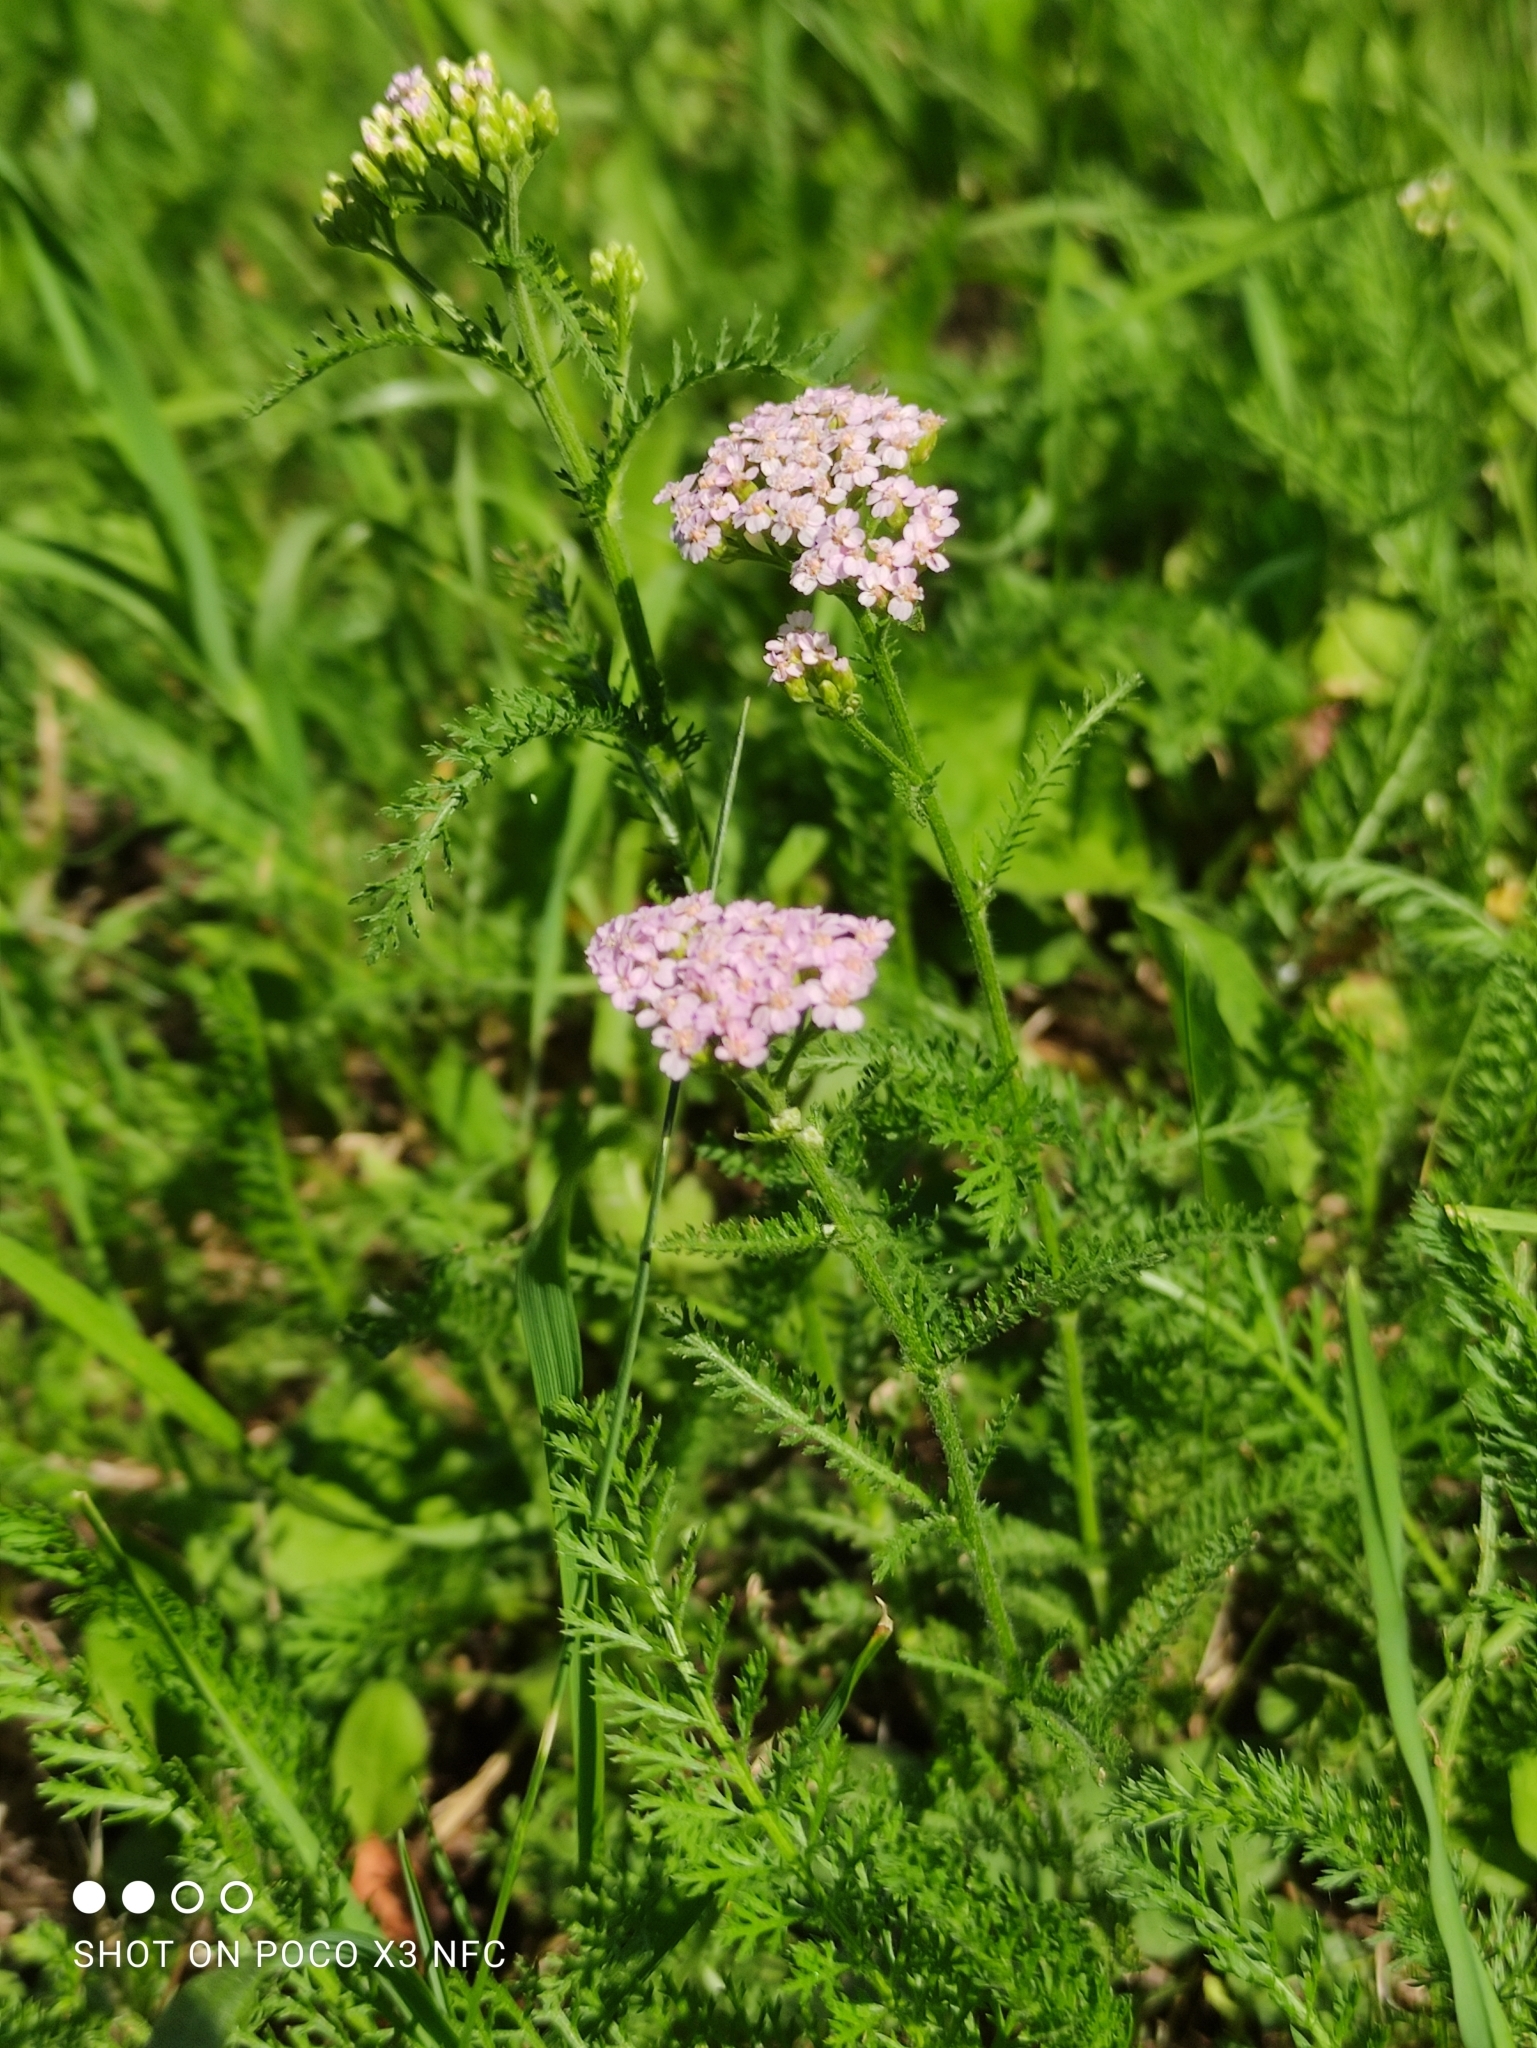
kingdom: Plantae
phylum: Tracheophyta
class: Magnoliopsida
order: Asterales
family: Asteraceae
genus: Achillea
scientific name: Achillea millefolium
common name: Yarrow
